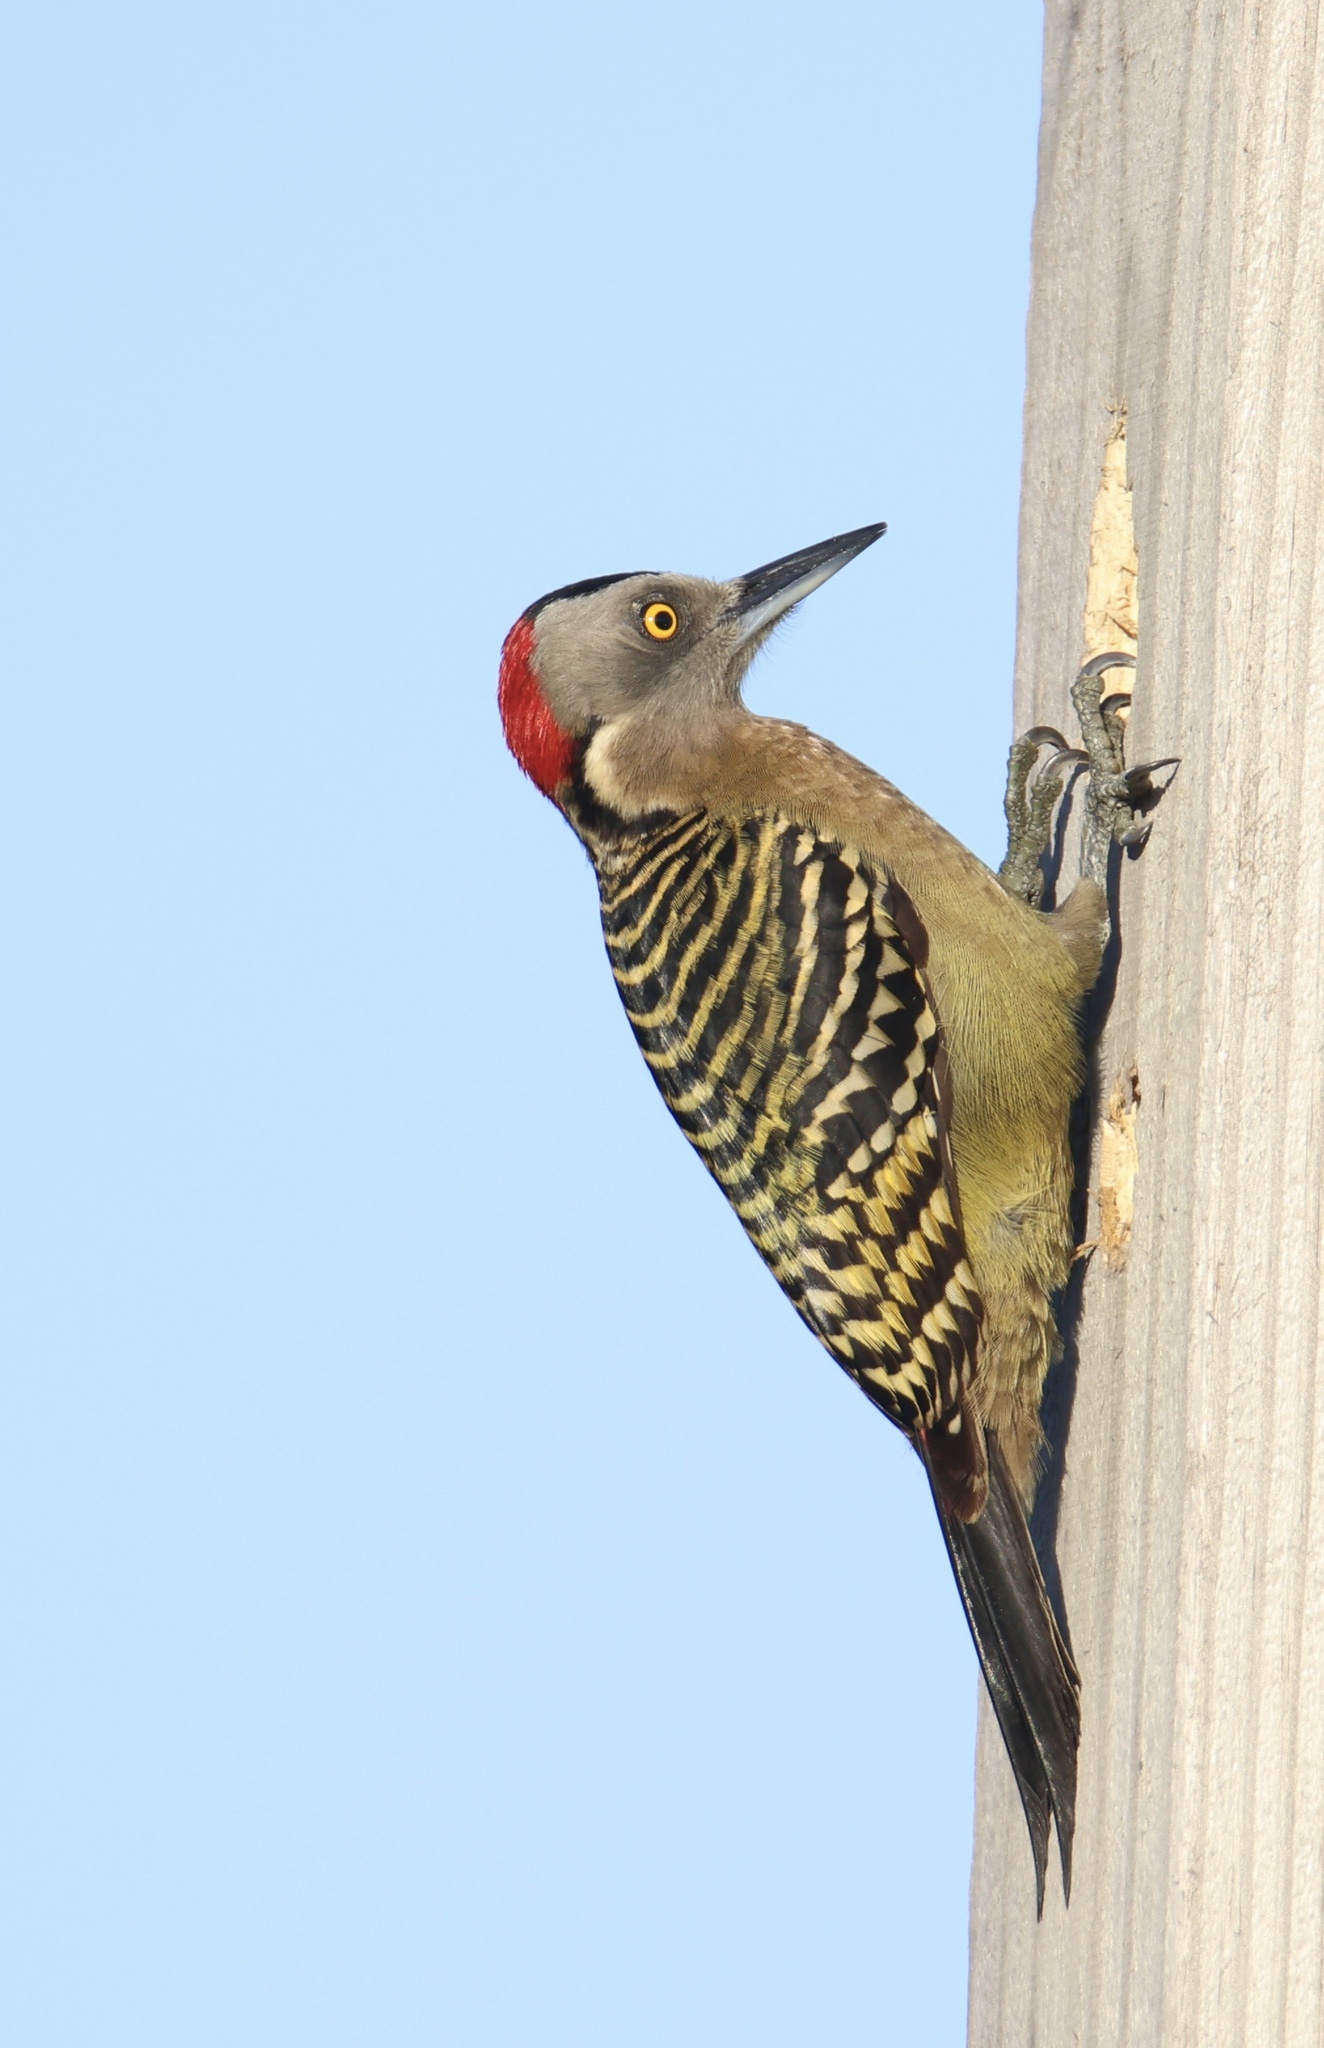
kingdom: Animalia
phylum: Chordata
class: Aves
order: Piciformes
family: Picidae
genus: Melanerpes
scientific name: Melanerpes striatus
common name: Hispaniolan woodpecker
